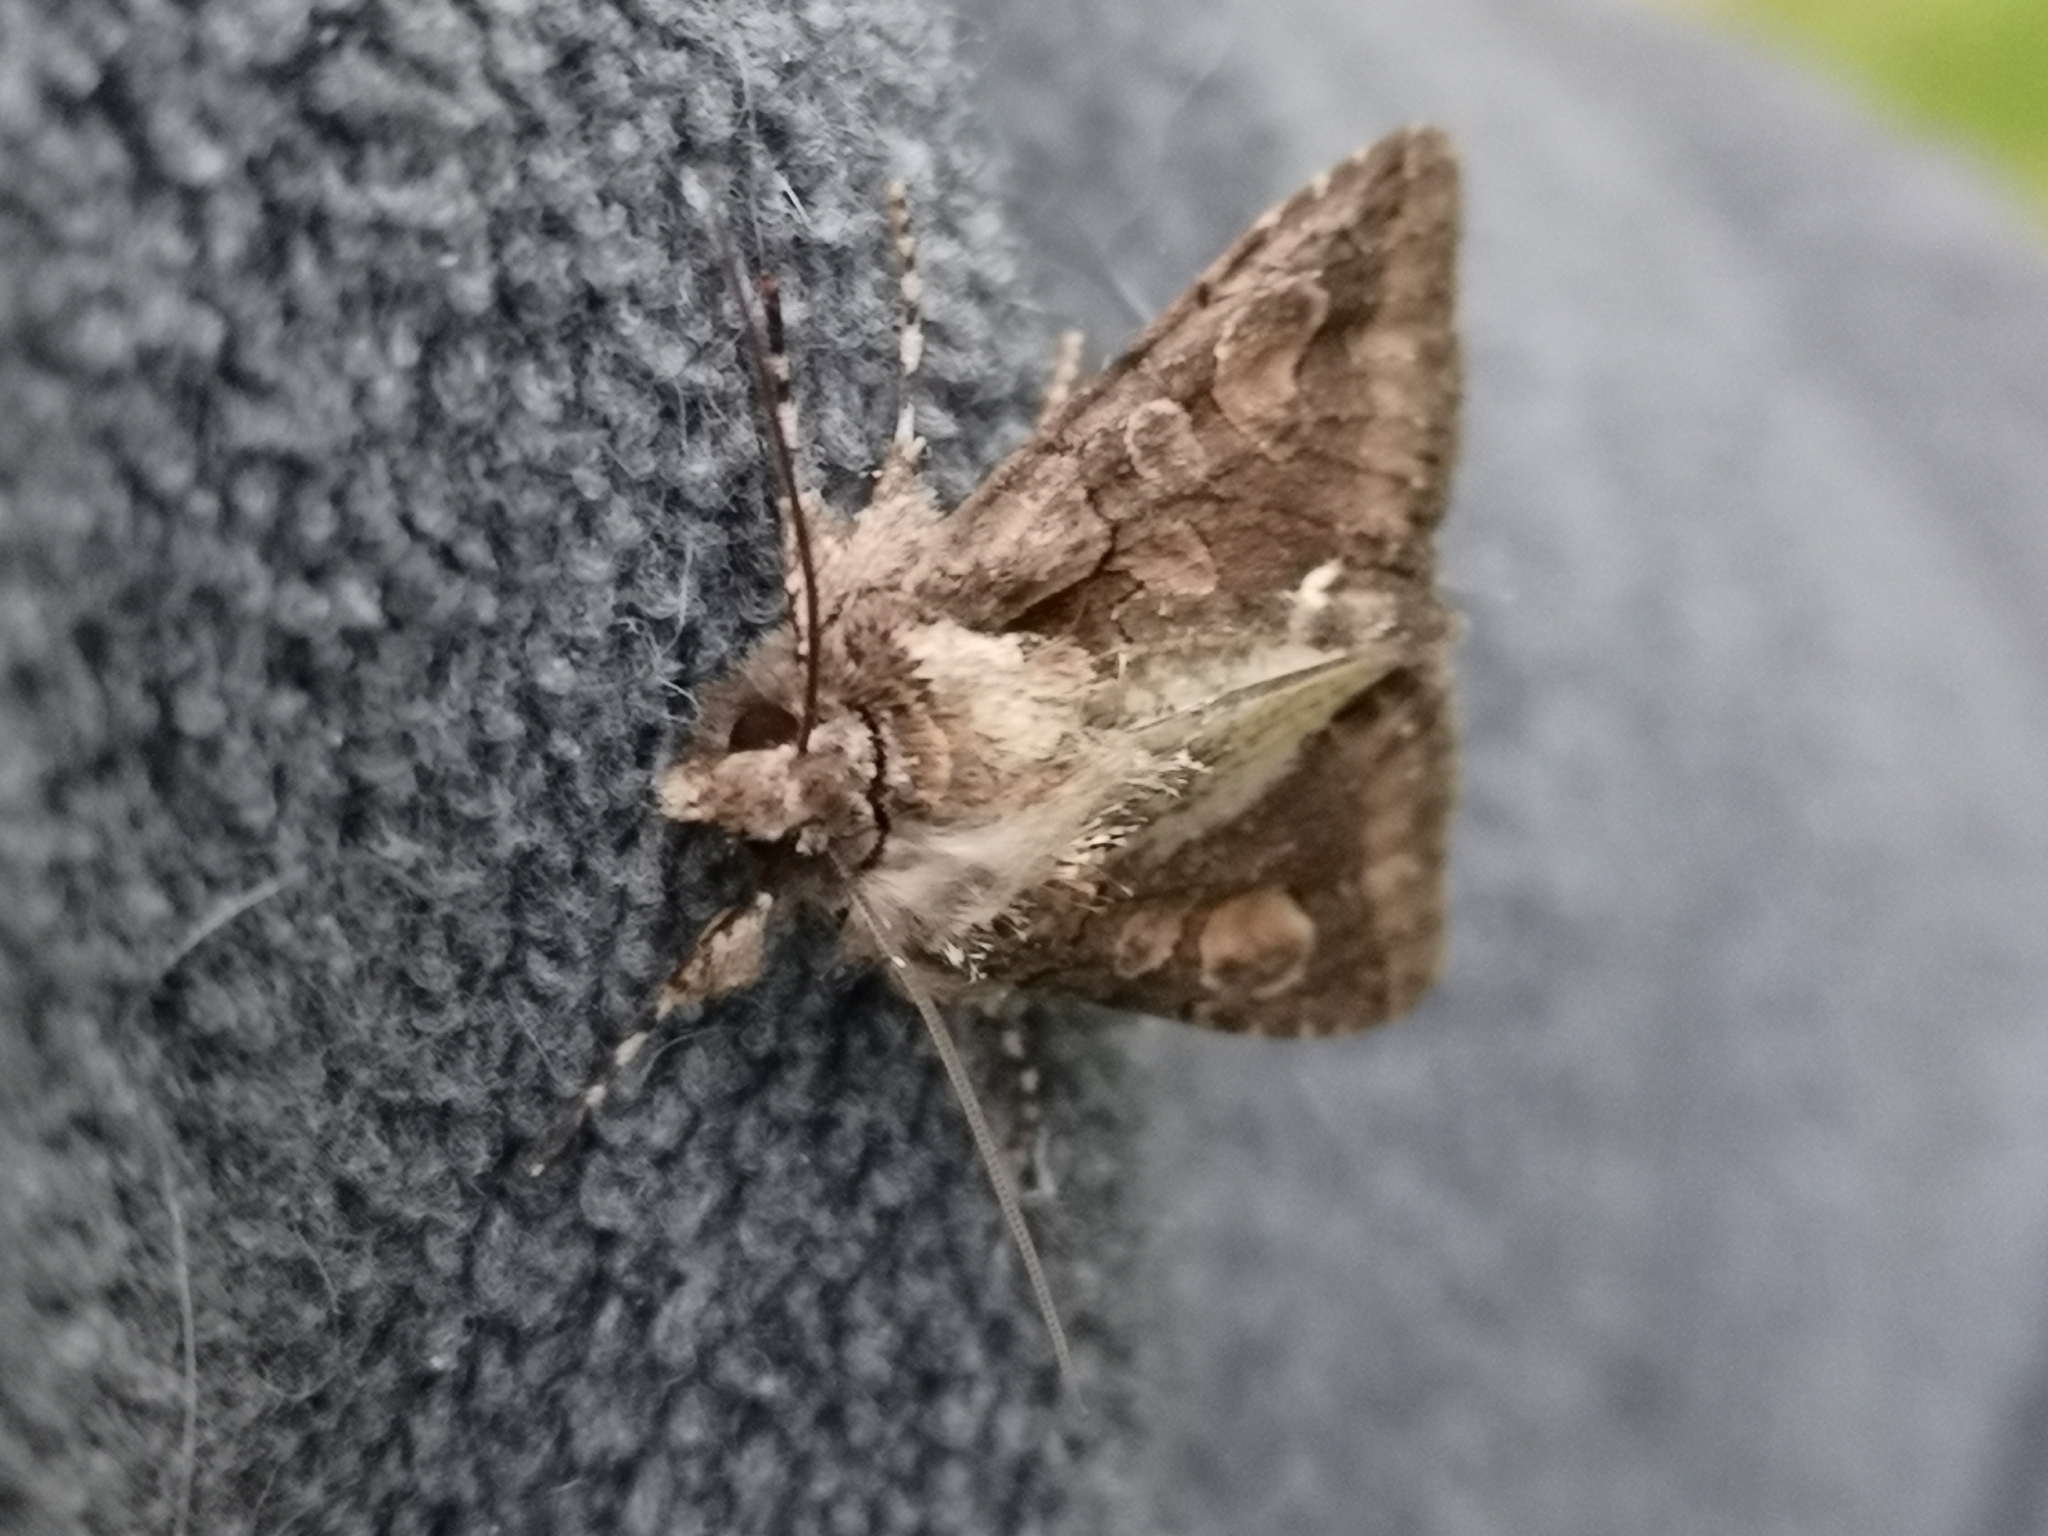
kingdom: Animalia
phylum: Arthropoda
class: Insecta
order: Lepidoptera
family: Noctuidae
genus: Allophyes
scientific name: Allophyes oxyacanthae
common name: Green-brindled crescent
